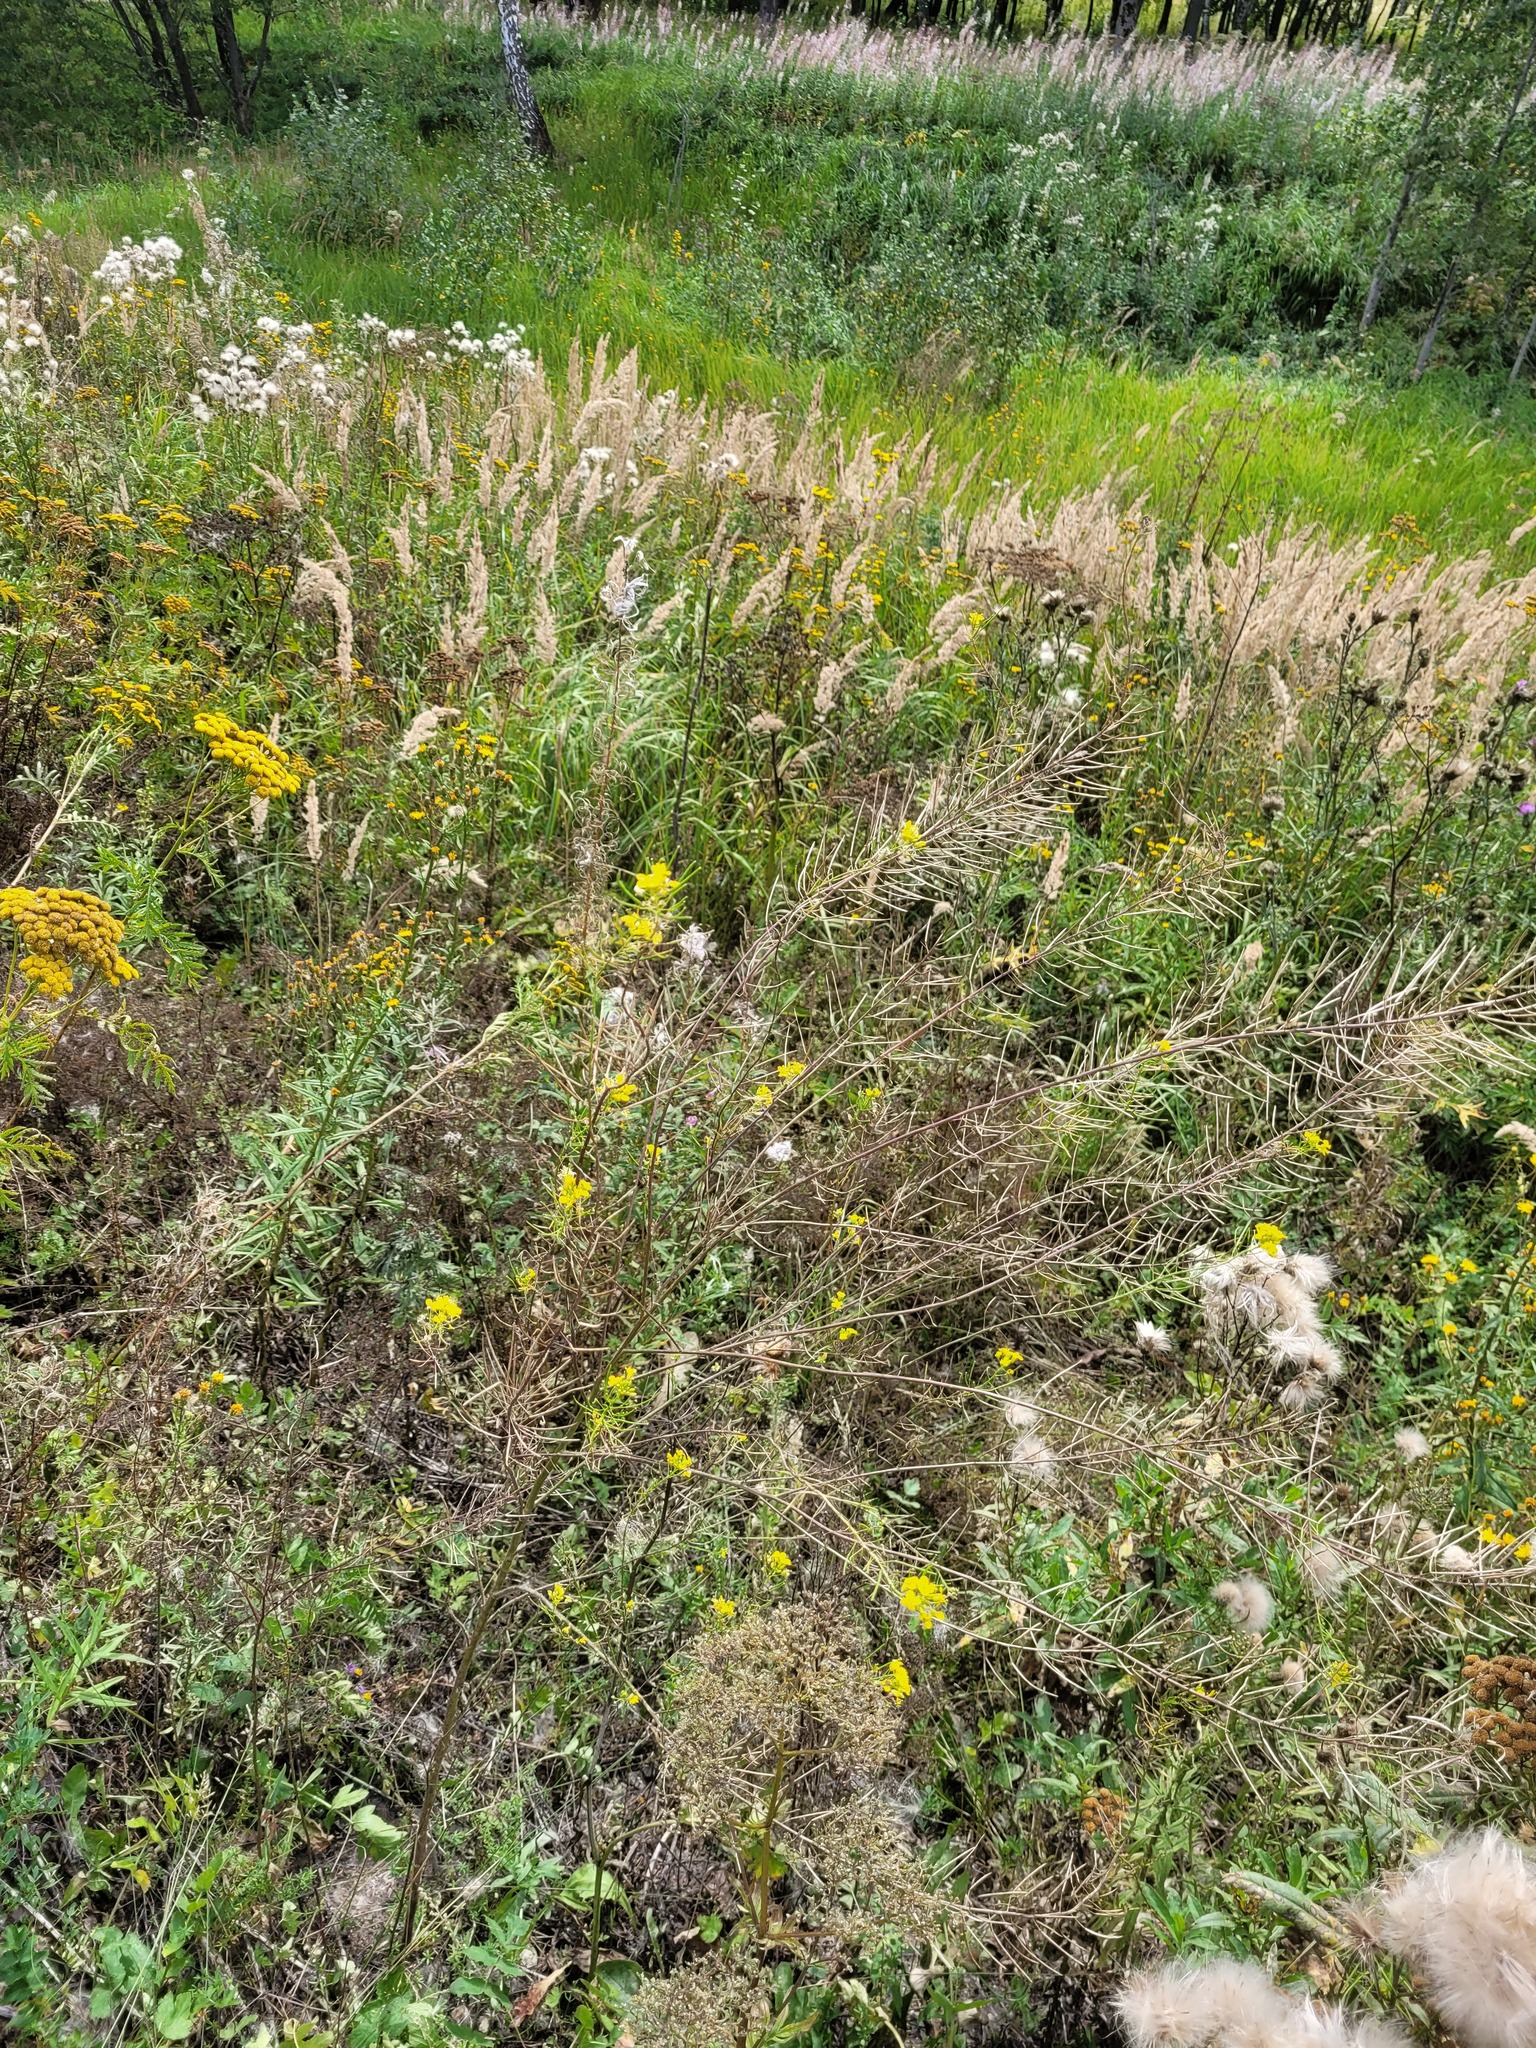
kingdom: Plantae
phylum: Tracheophyta
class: Magnoliopsida
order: Brassicales
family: Brassicaceae
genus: Sisymbrium
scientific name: Sisymbrium loeselii
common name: False london-rocket
